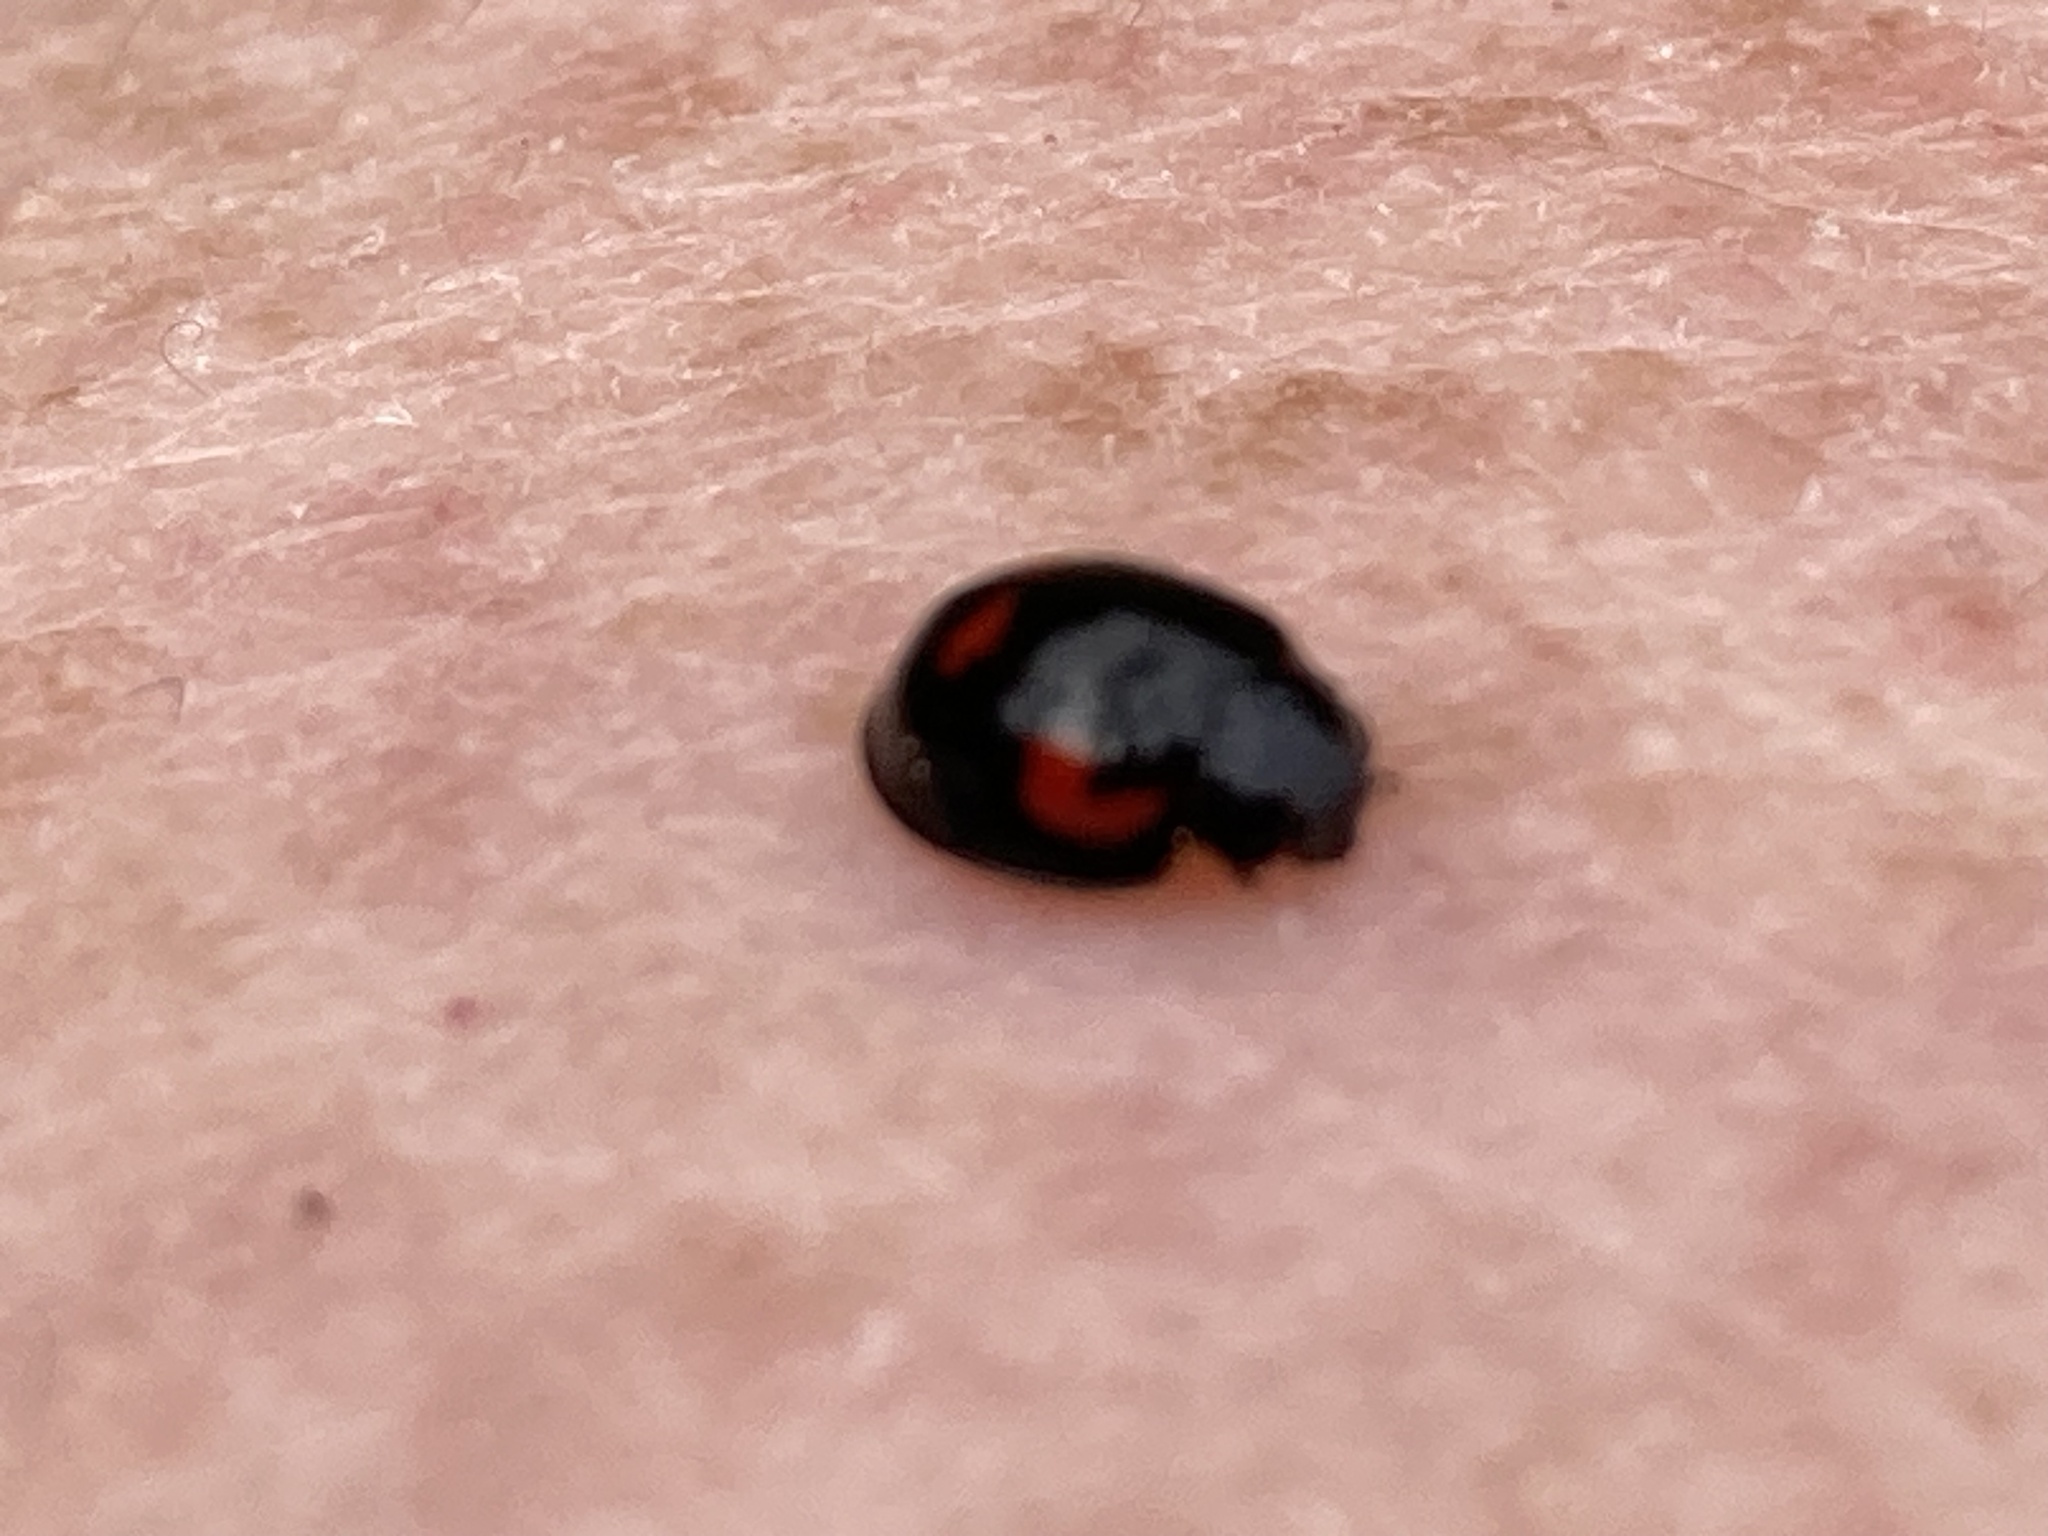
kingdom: Animalia
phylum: Arthropoda
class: Insecta
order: Coleoptera
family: Coccinellidae
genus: Brumus
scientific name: Brumus quadripustulatus
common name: Ladybird beetle
